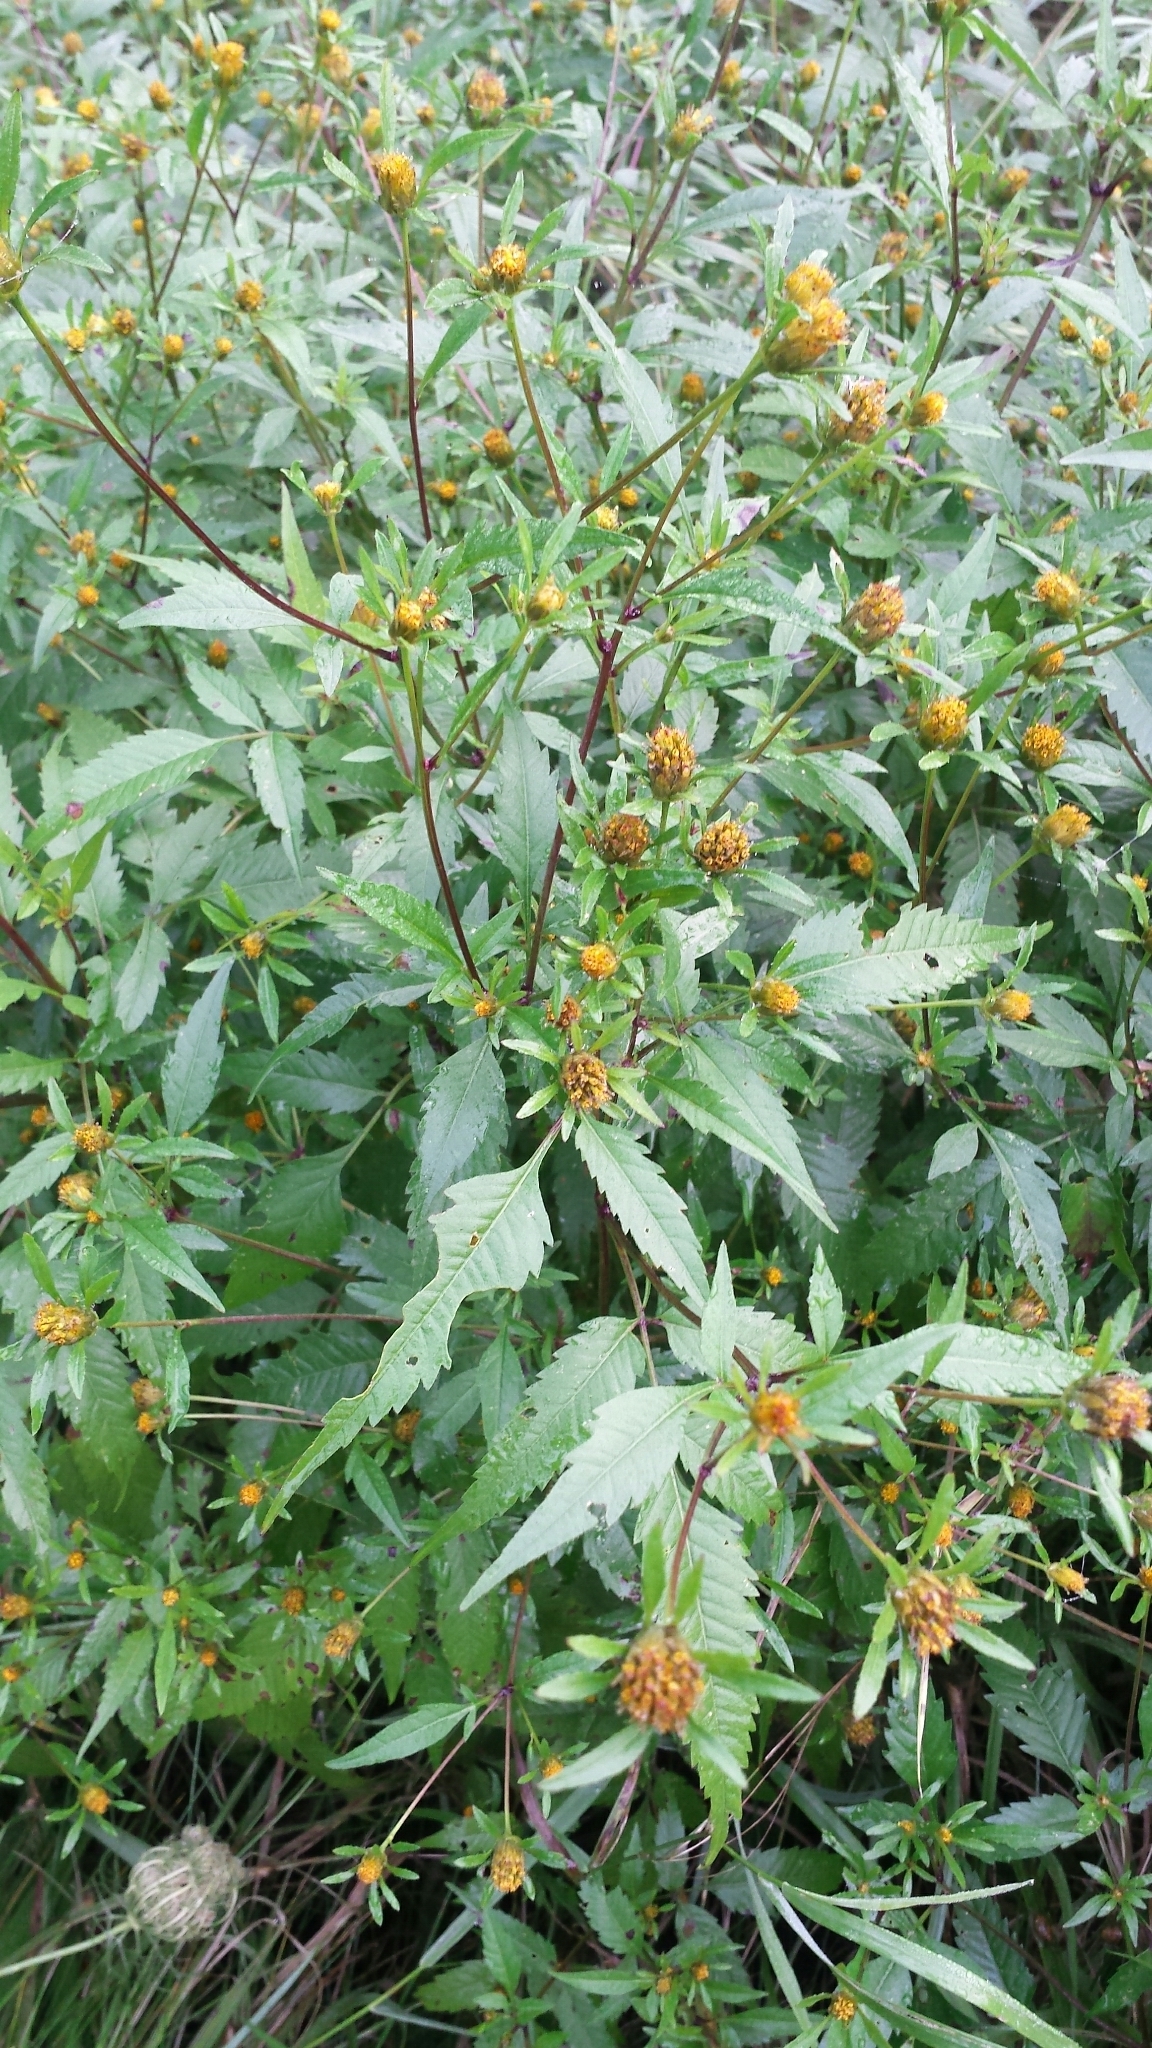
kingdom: Plantae
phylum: Tracheophyta
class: Magnoliopsida
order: Asterales
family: Asteraceae
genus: Bidens
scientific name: Bidens frondosa
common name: Beggarticks
